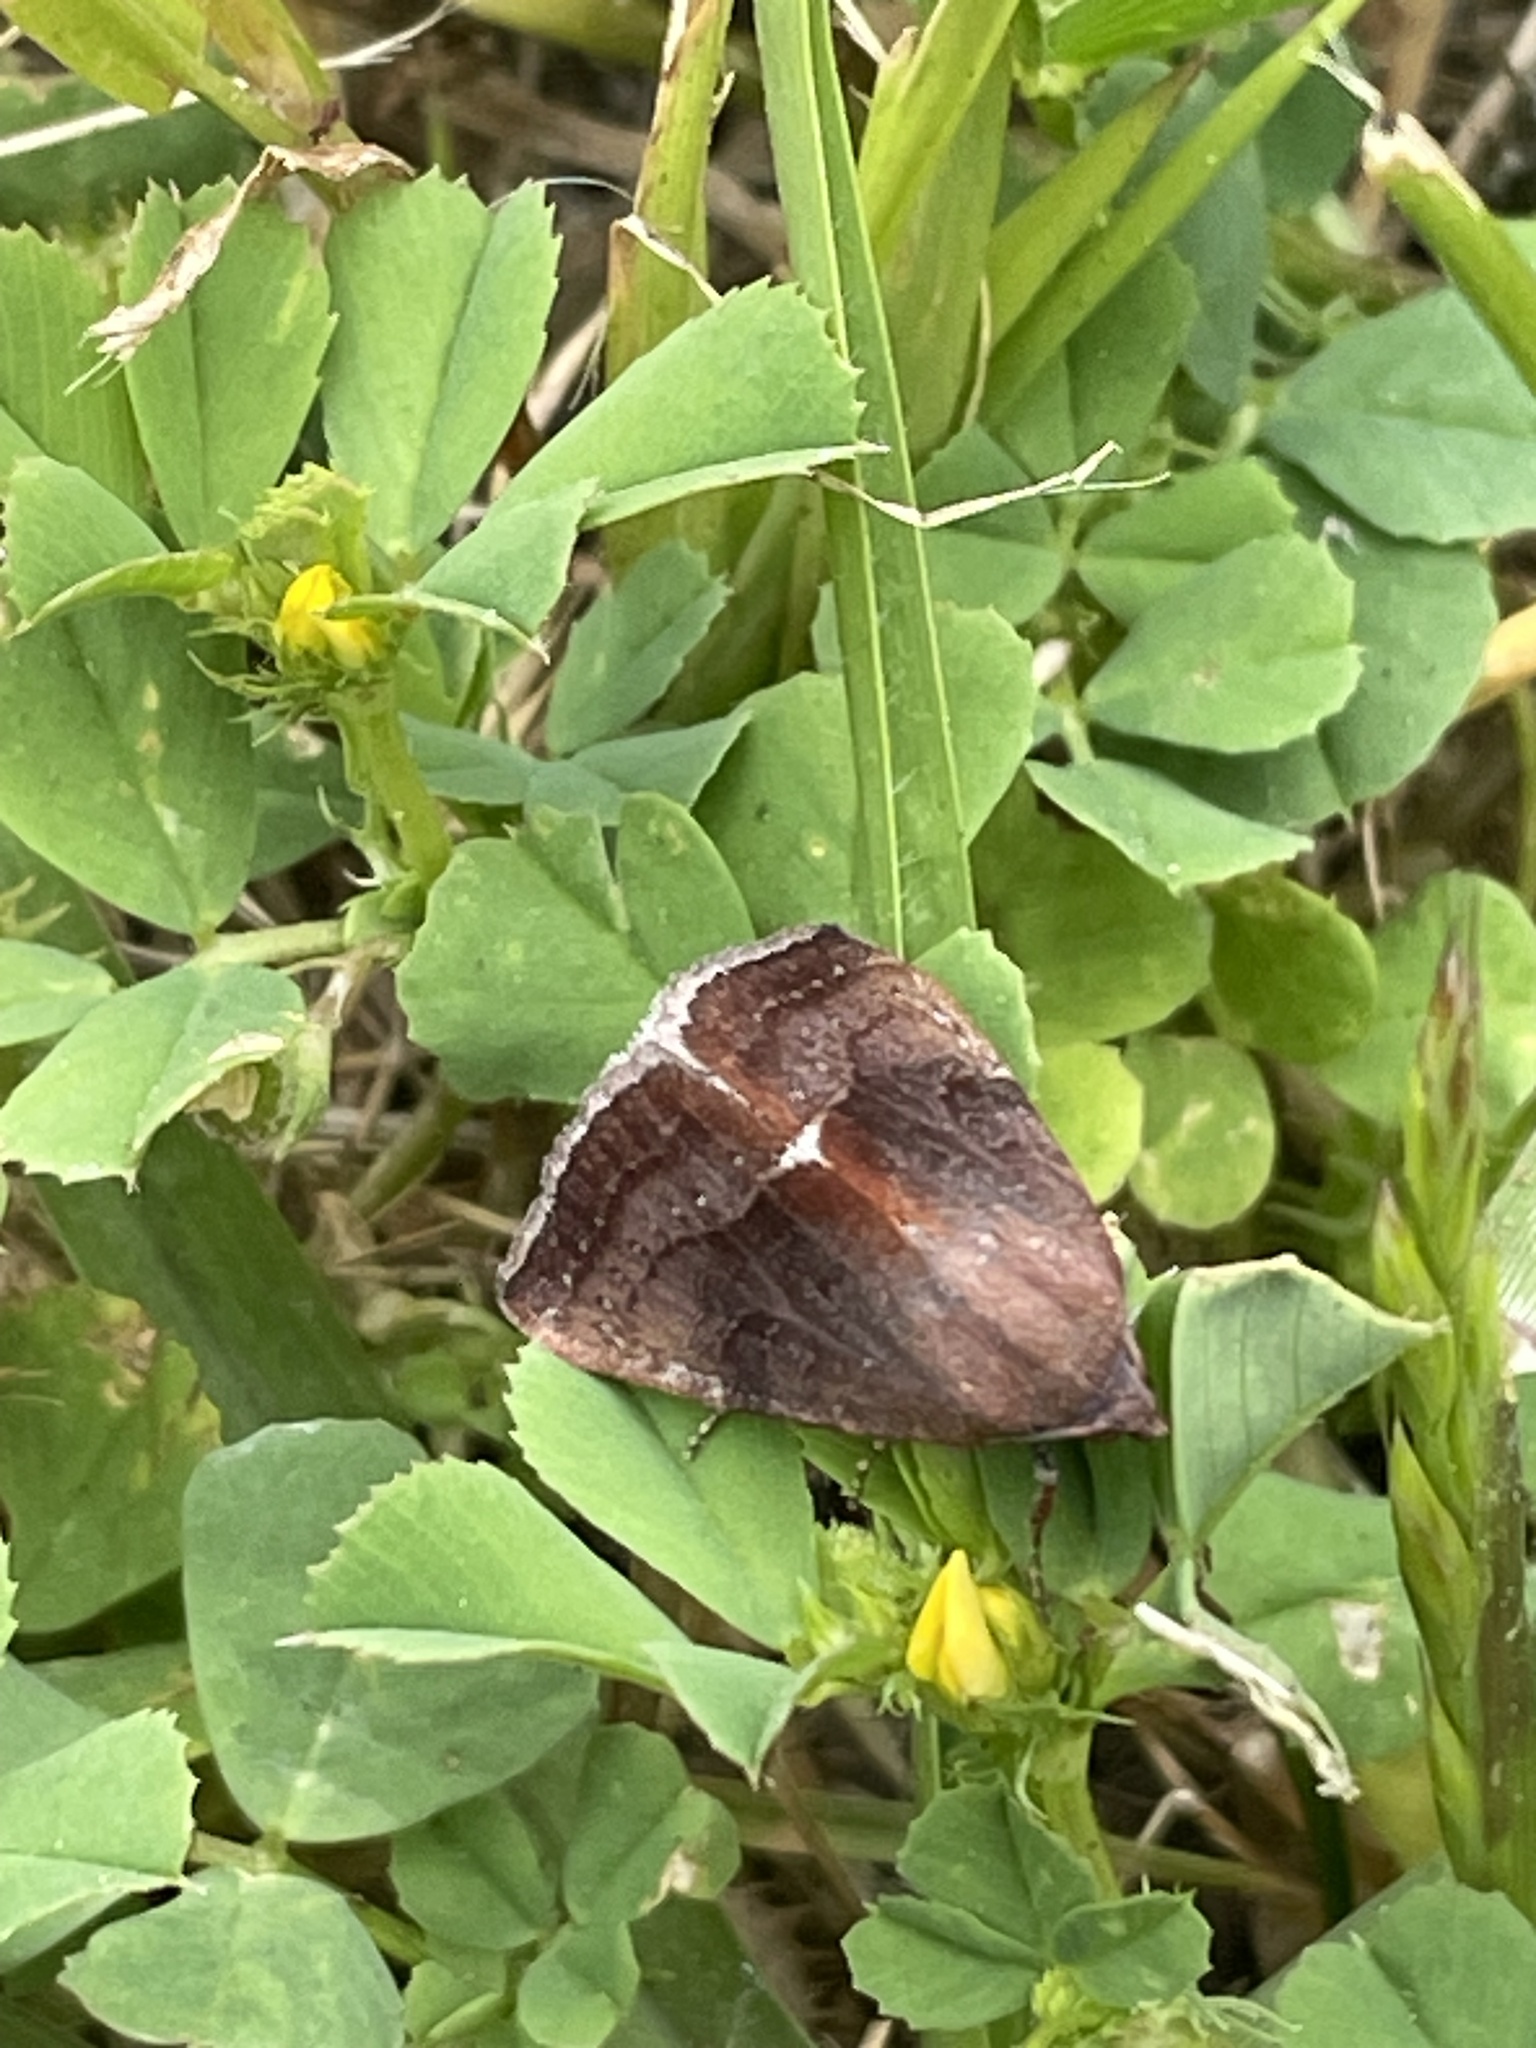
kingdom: Animalia
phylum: Arthropoda
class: Insecta
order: Lepidoptera
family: Noctuidae
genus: Galgula
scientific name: Galgula partita
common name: Wedgeling
